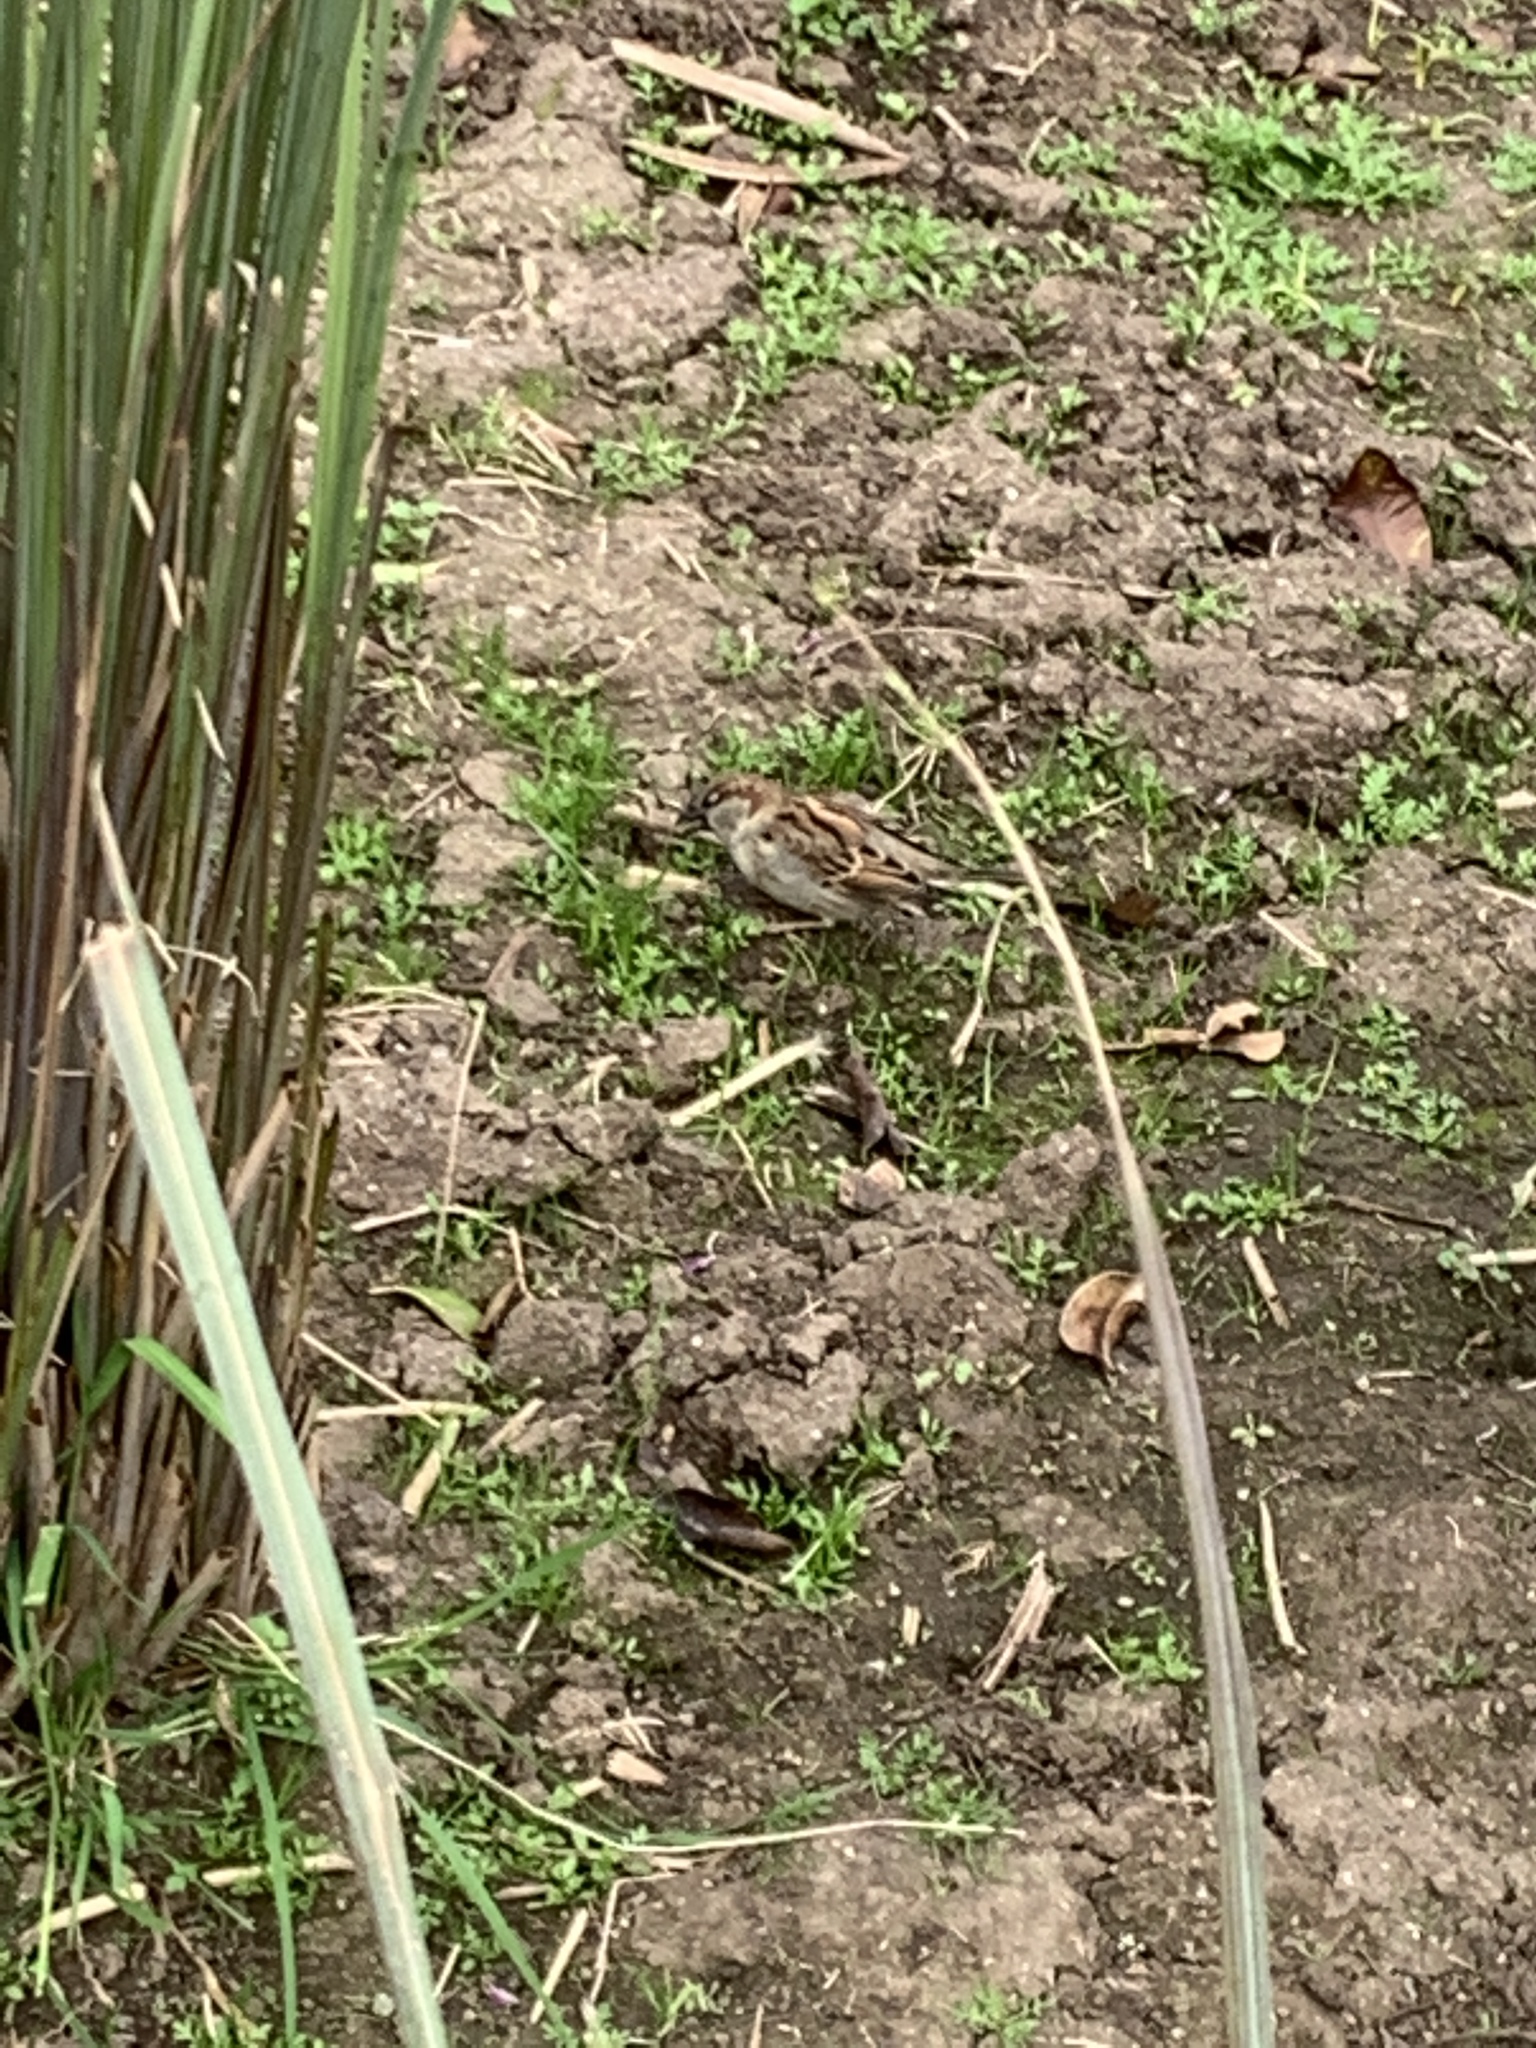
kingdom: Animalia
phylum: Chordata
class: Aves
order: Passeriformes
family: Passeridae
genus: Passer
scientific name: Passer domesticus
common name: House sparrow
